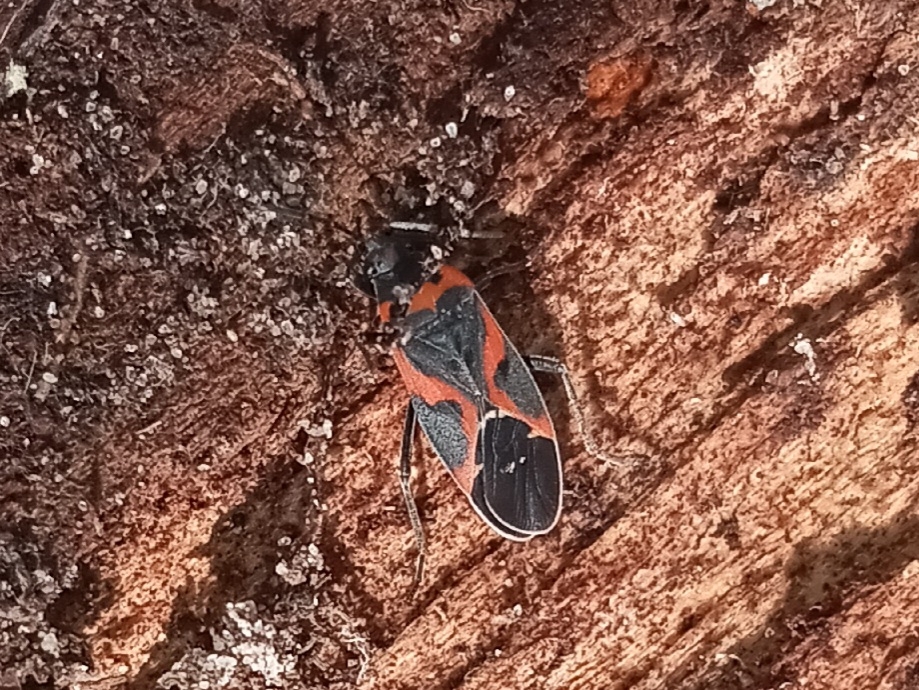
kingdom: Animalia
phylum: Arthropoda
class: Insecta
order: Hemiptera
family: Lygaeidae
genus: Lygaeus
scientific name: Lygaeus kalmii
